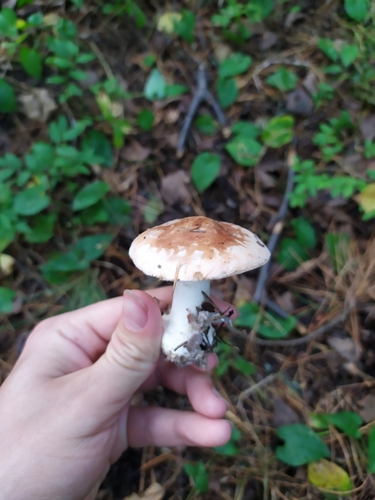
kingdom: Fungi
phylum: Basidiomycota
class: Agaricomycetes
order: Agaricales
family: Tricholomataceae
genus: Leucocortinarius
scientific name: Leucocortinarius bulbiger
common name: White webcap
